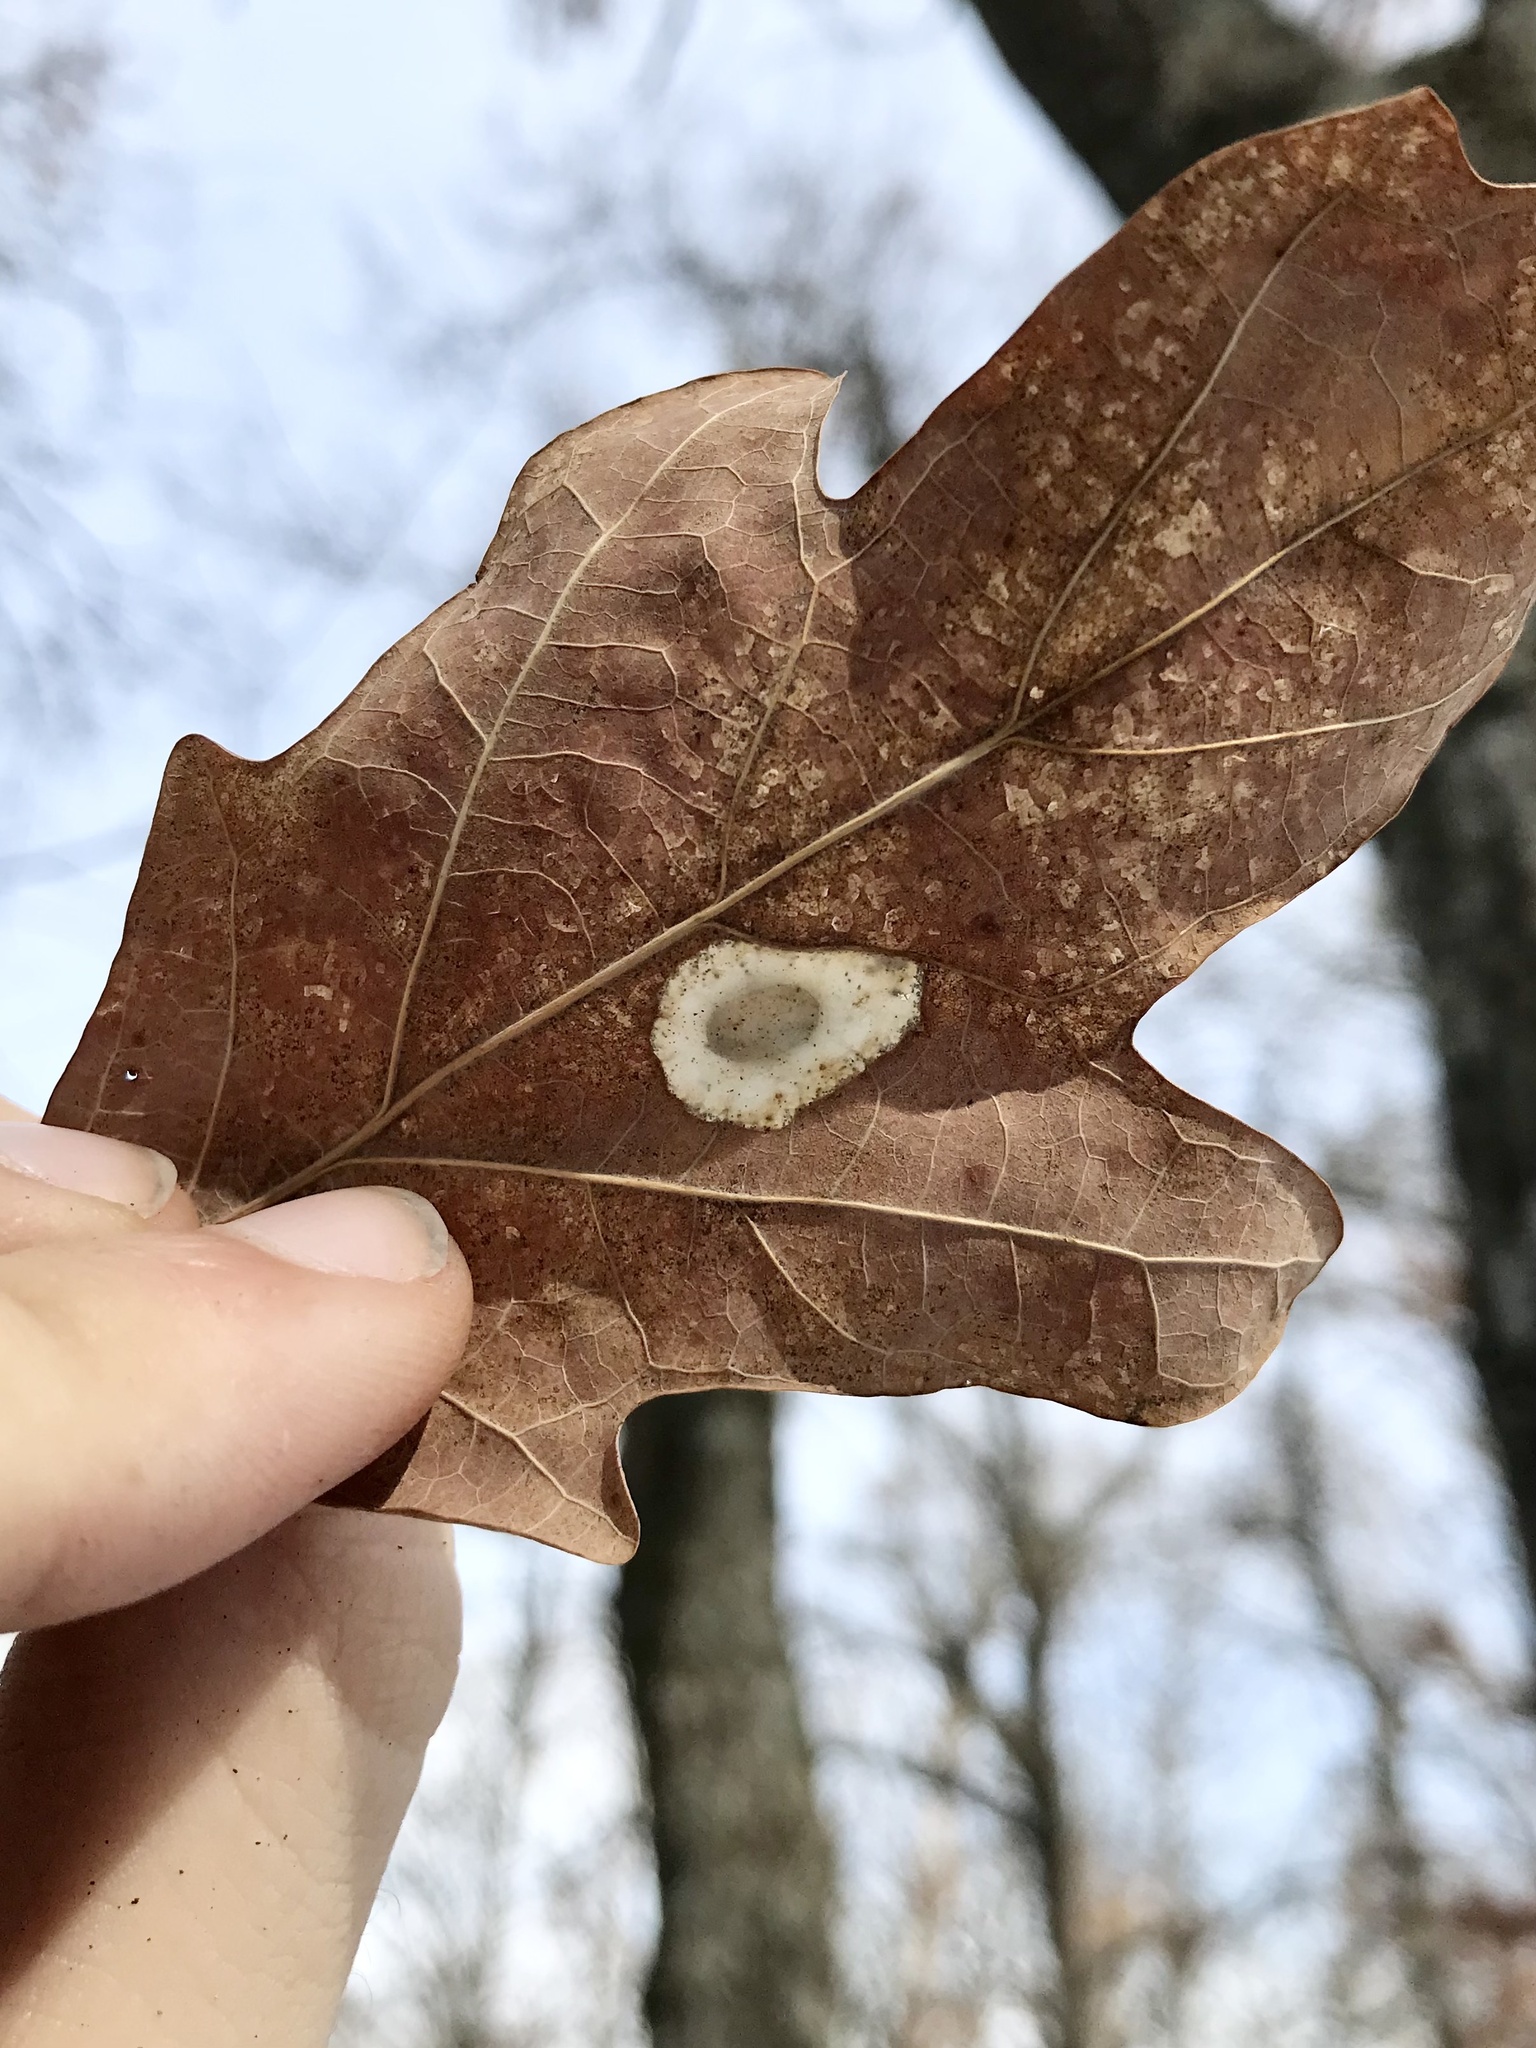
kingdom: Animalia
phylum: Arthropoda
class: Insecta
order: Lepidoptera
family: Gracillariidae
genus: Phyllonorycter
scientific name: Phyllonorycter basistrigella
